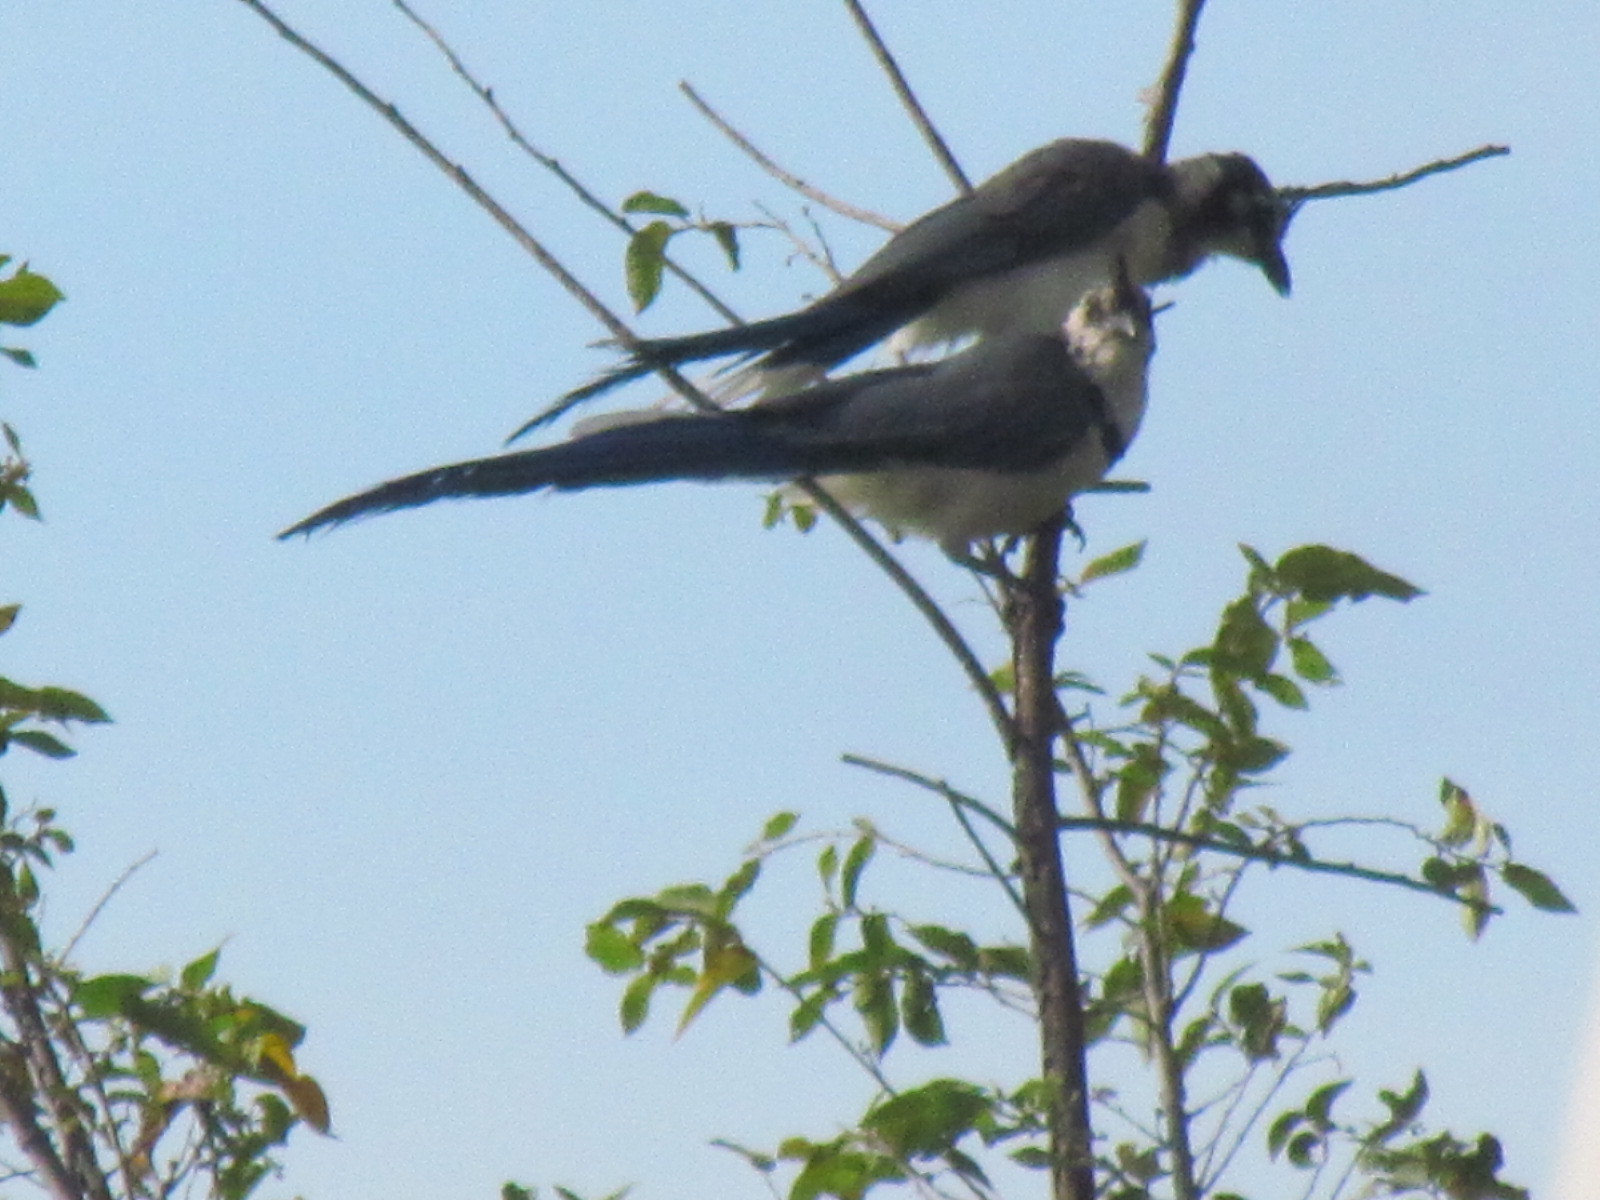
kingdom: Animalia
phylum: Chordata
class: Aves
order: Passeriformes
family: Corvidae
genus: Calocitta
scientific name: Calocitta formosa
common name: White-throated magpie-jay
